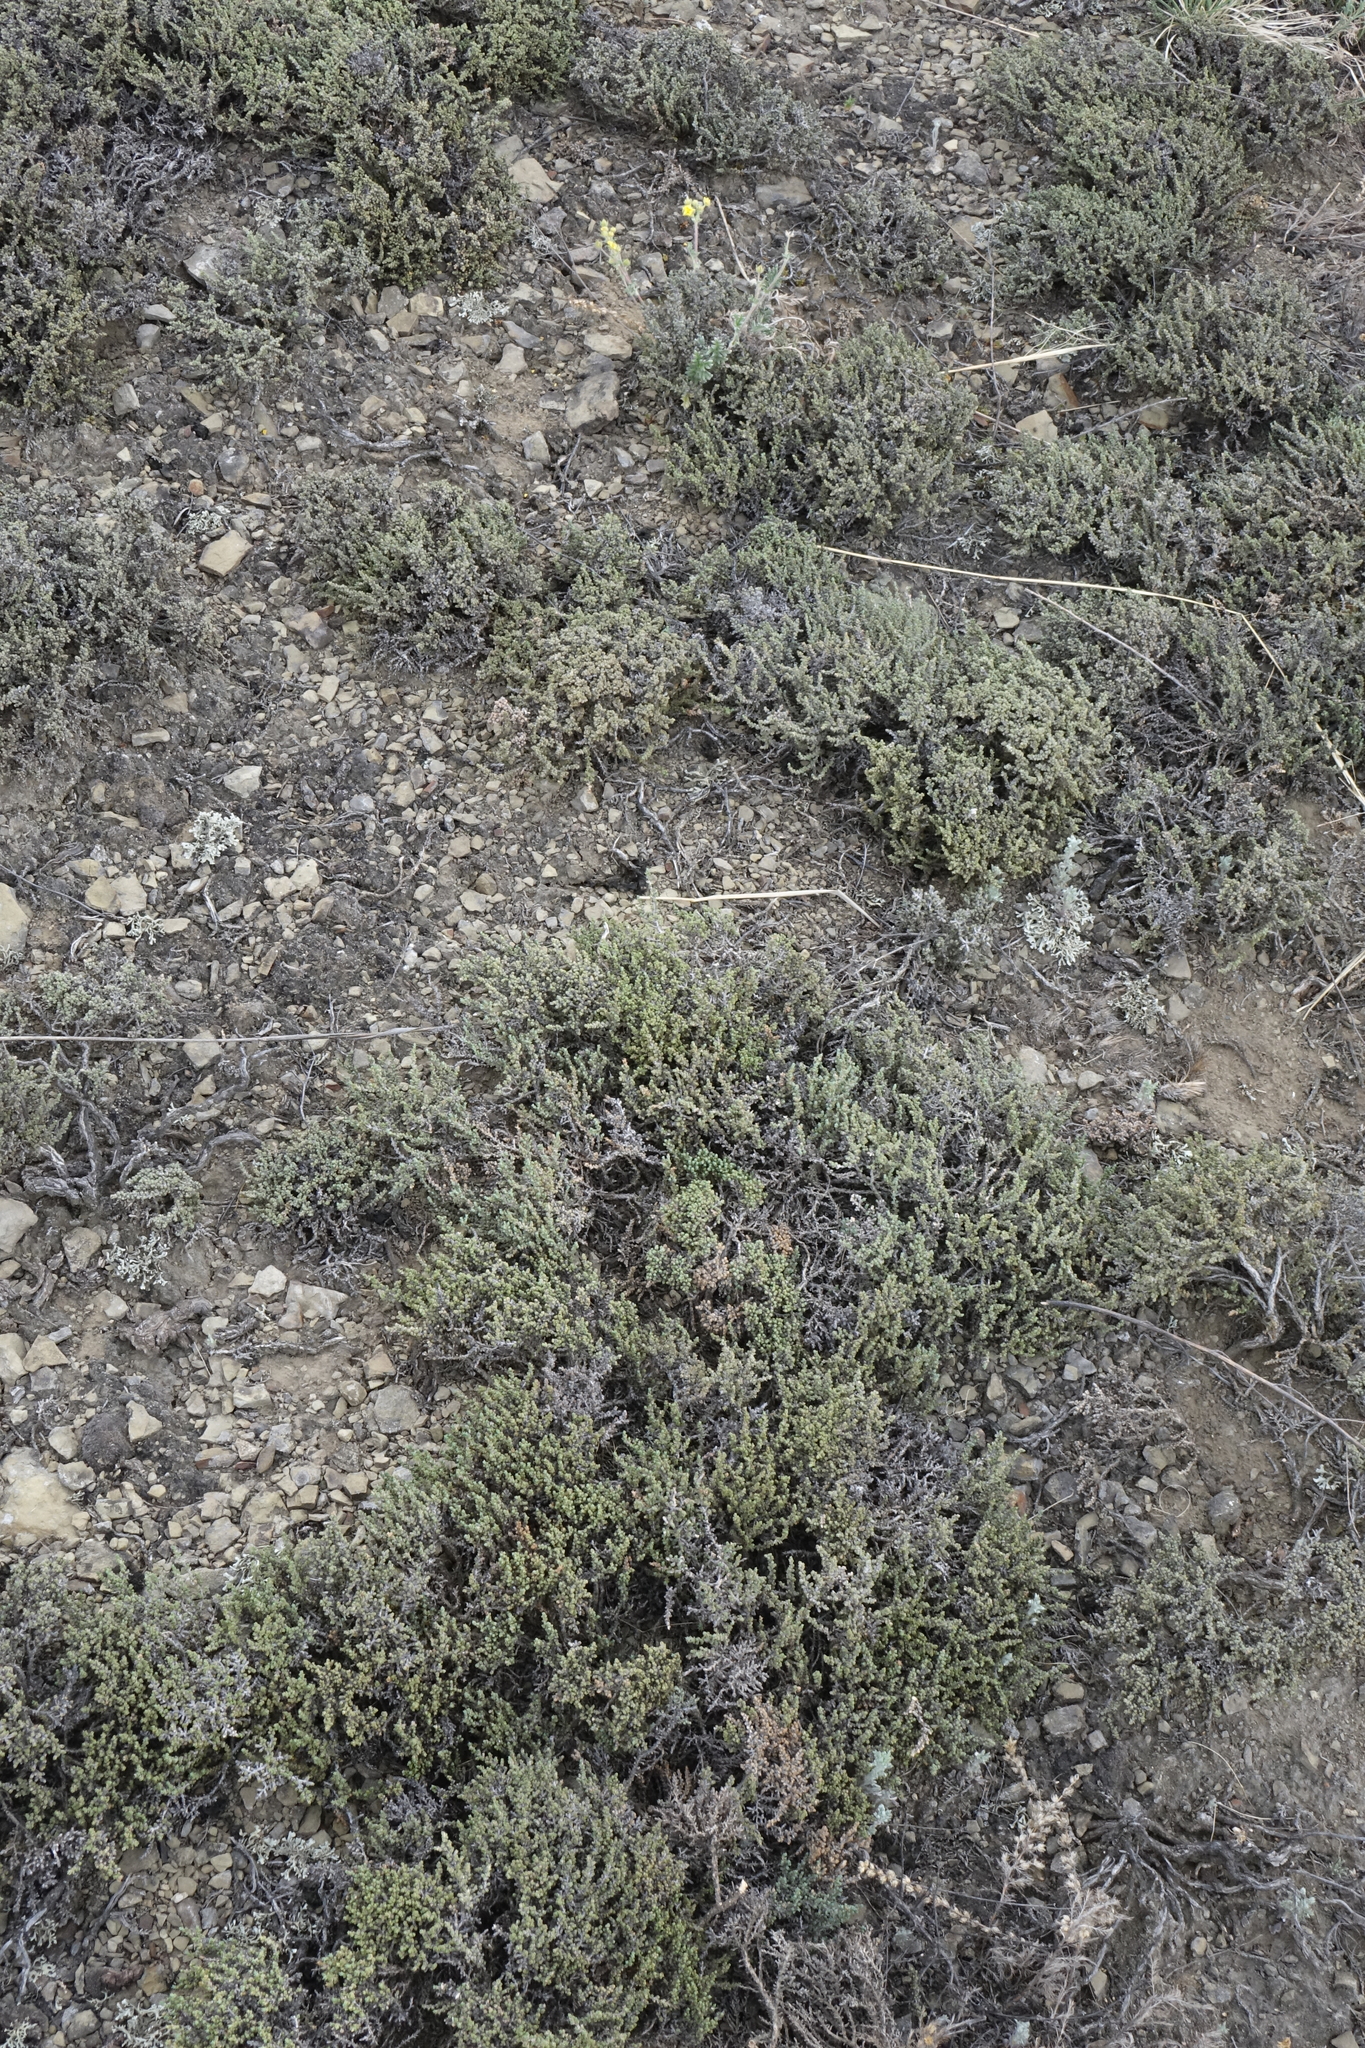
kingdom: Plantae
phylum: Tracheophyta
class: Magnoliopsida
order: Caryophyllales
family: Amaranthaceae
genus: Nanophyton
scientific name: Nanophyton grubovii
